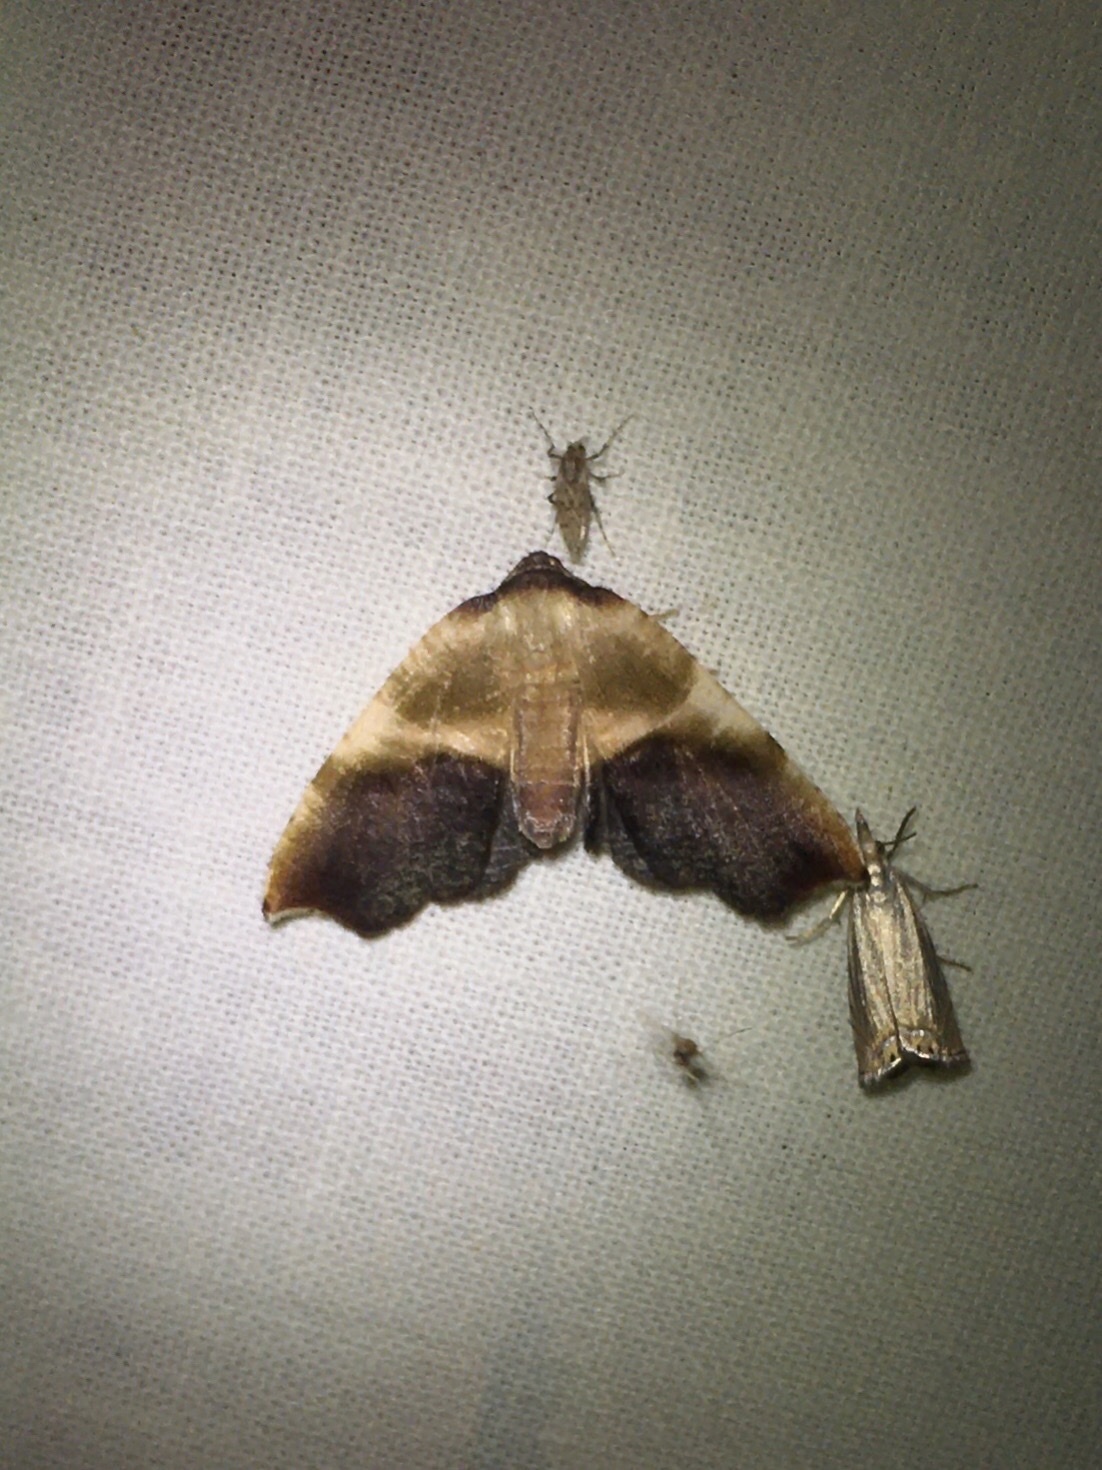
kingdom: Animalia
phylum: Arthropoda
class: Insecta
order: Lepidoptera
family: Geometridae
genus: Plagodis
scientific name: Plagodis kuetzingi
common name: Purple plagodis
